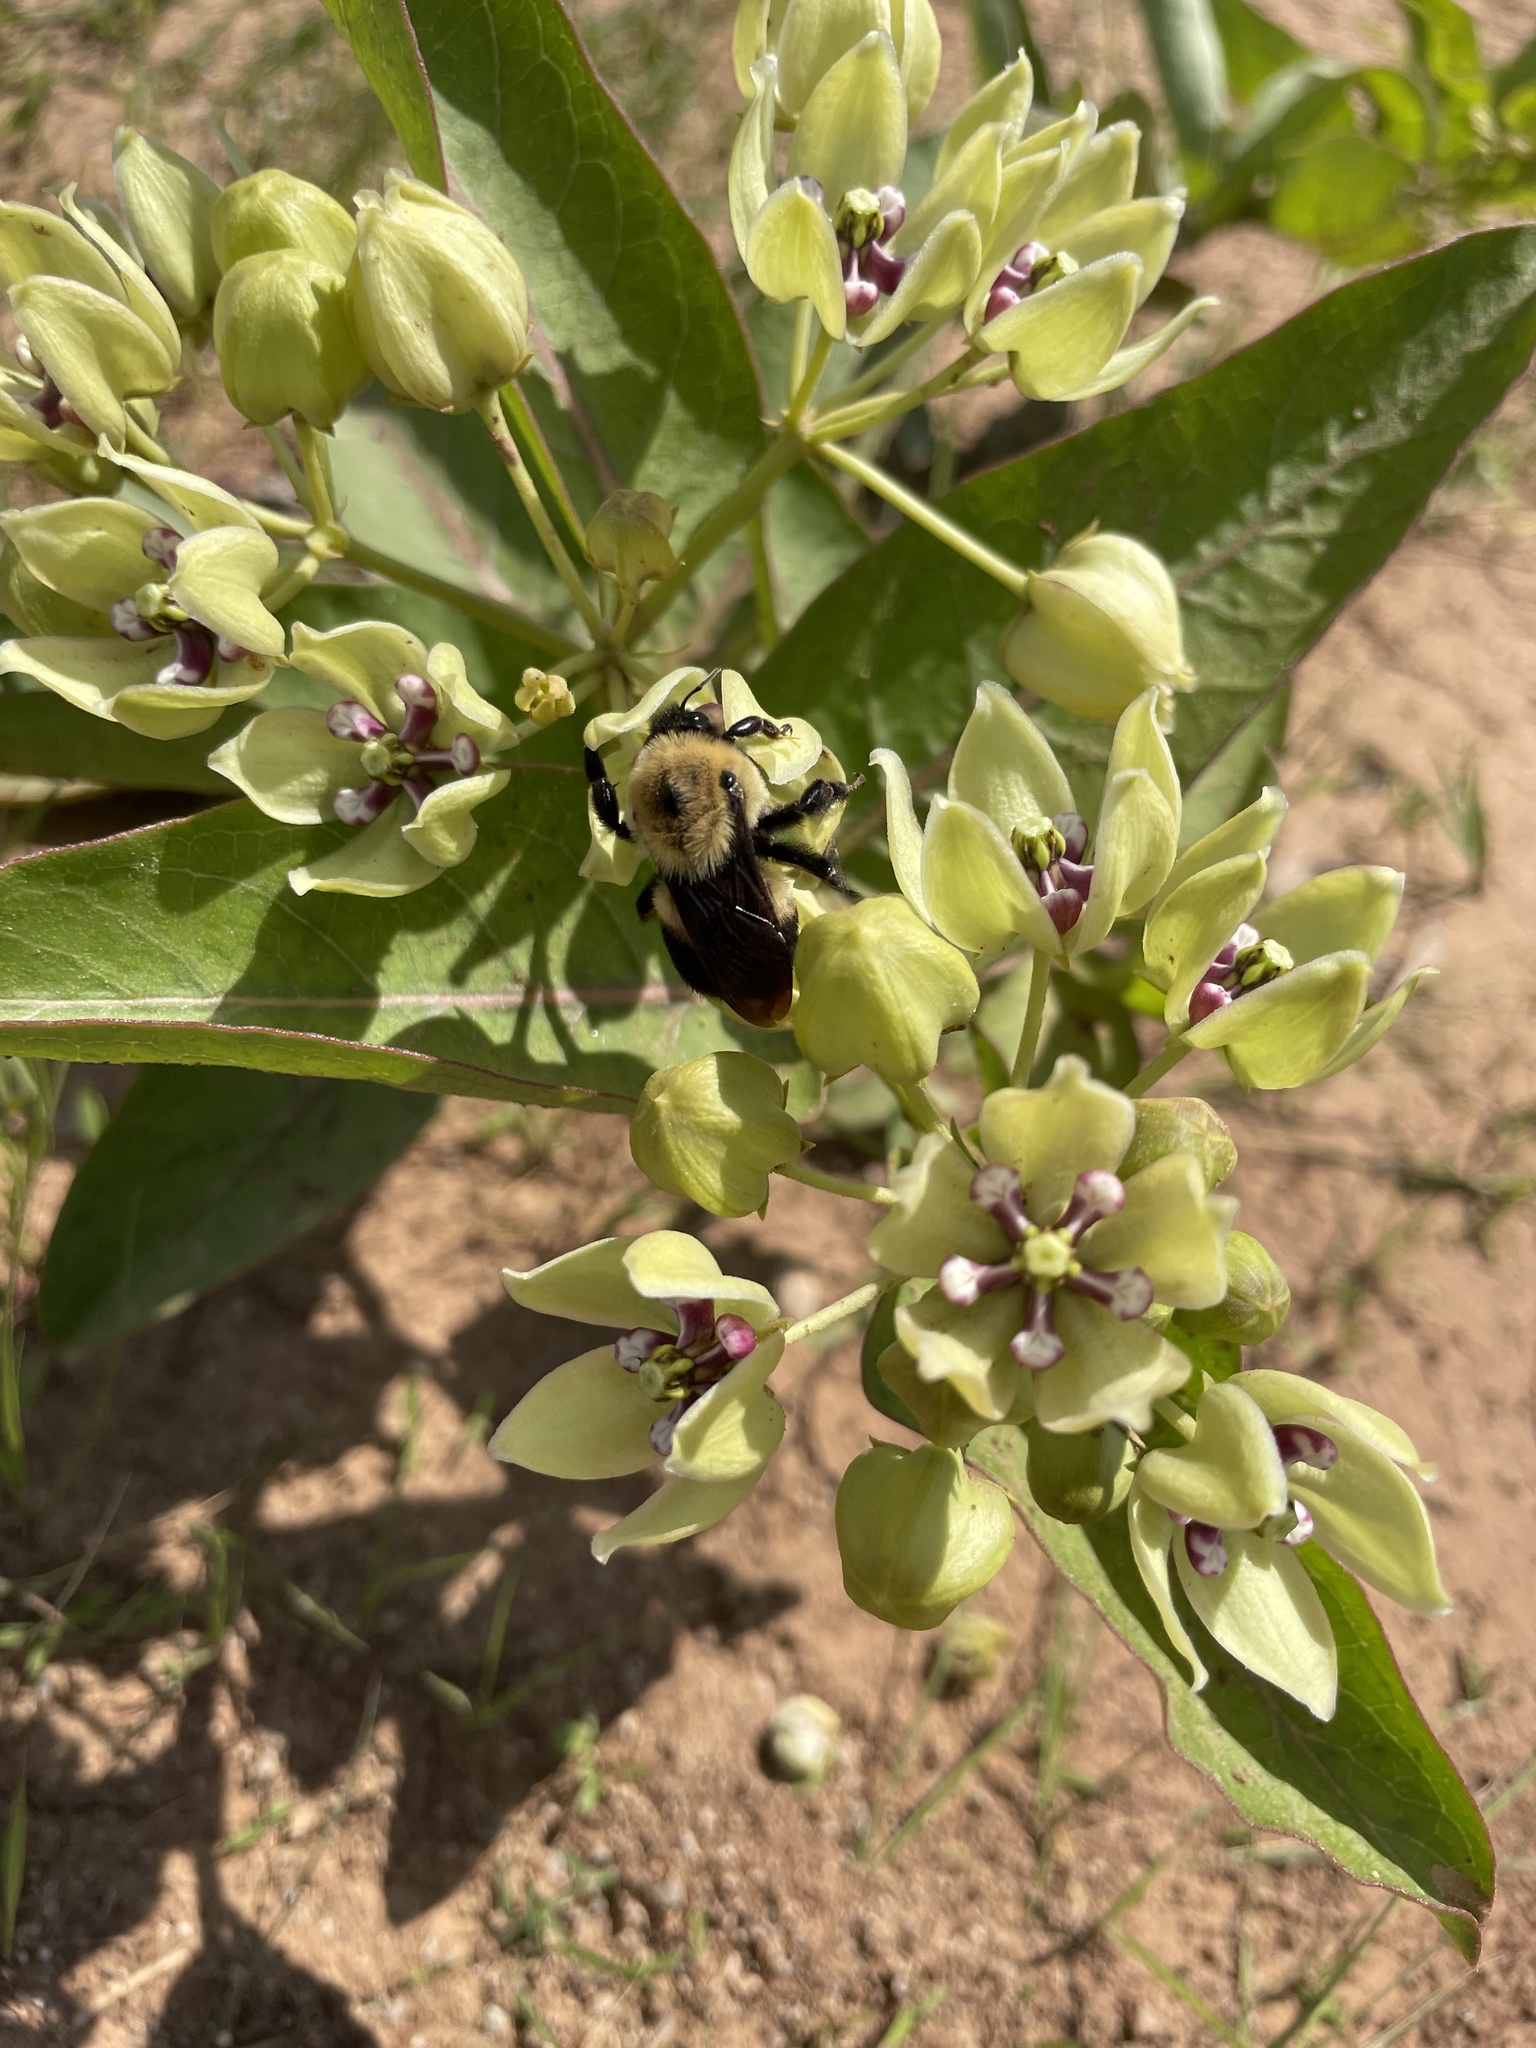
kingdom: Animalia
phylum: Arthropoda
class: Insecta
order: Hymenoptera
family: Apidae
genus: Bombus
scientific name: Bombus griseocollis
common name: Brown-belted bumble bee
